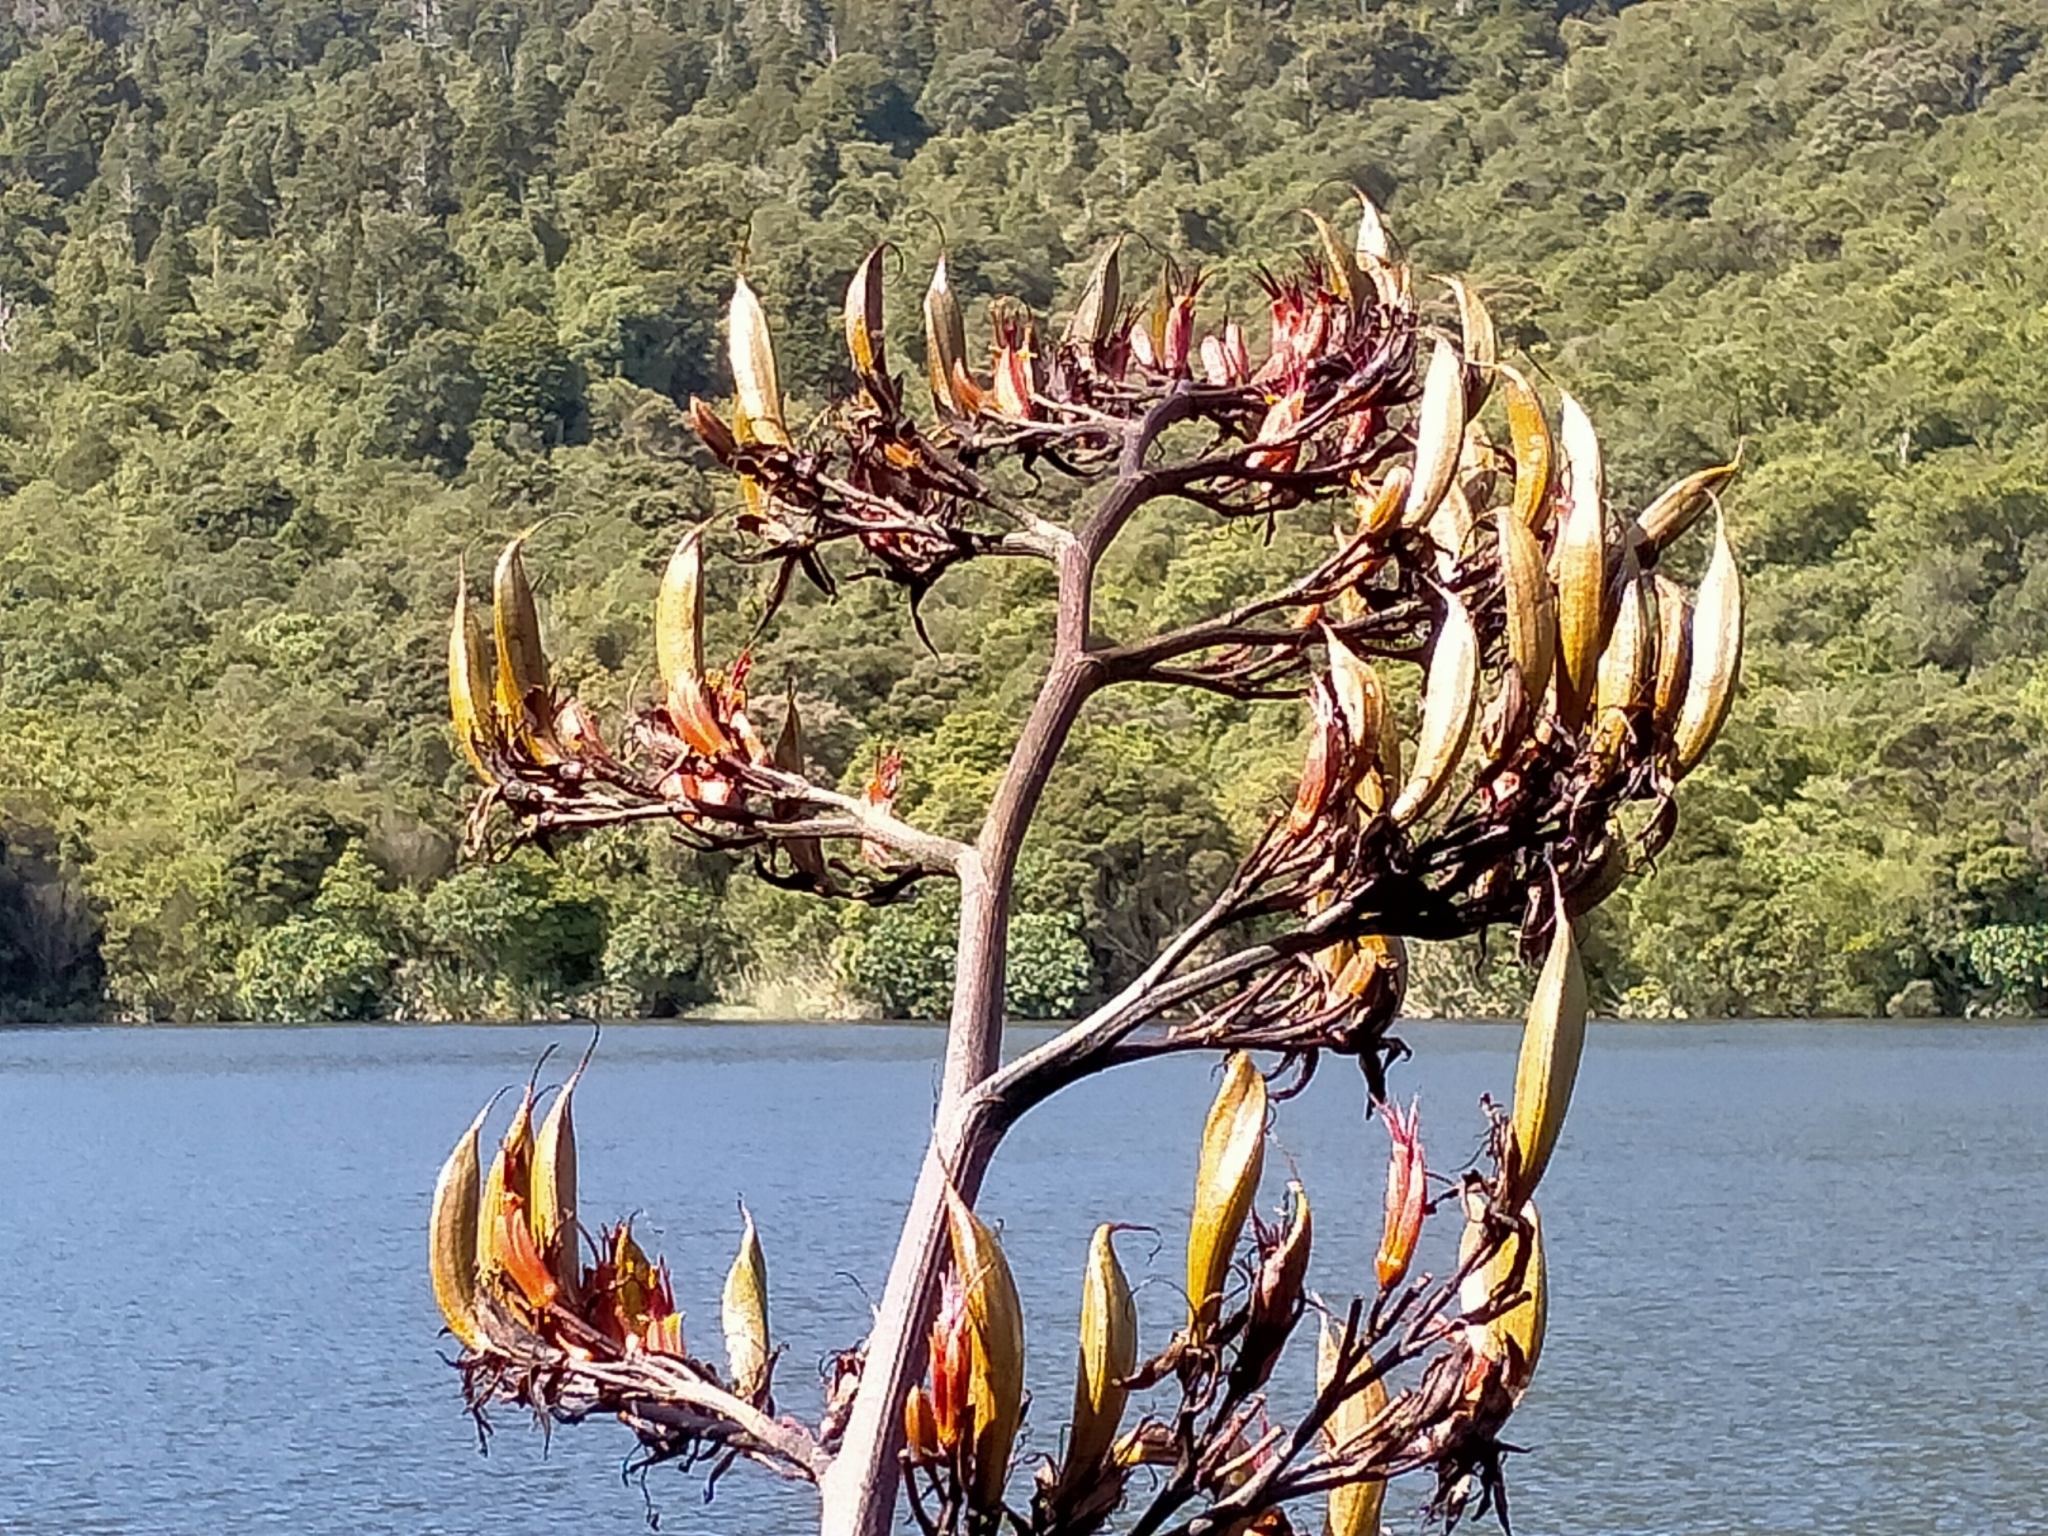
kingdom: Plantae
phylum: Tracheophyta
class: Liliopsida
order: Asparagales
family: Asphodelaceae
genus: Phormium
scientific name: Phormium tenax
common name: New zealand flax
